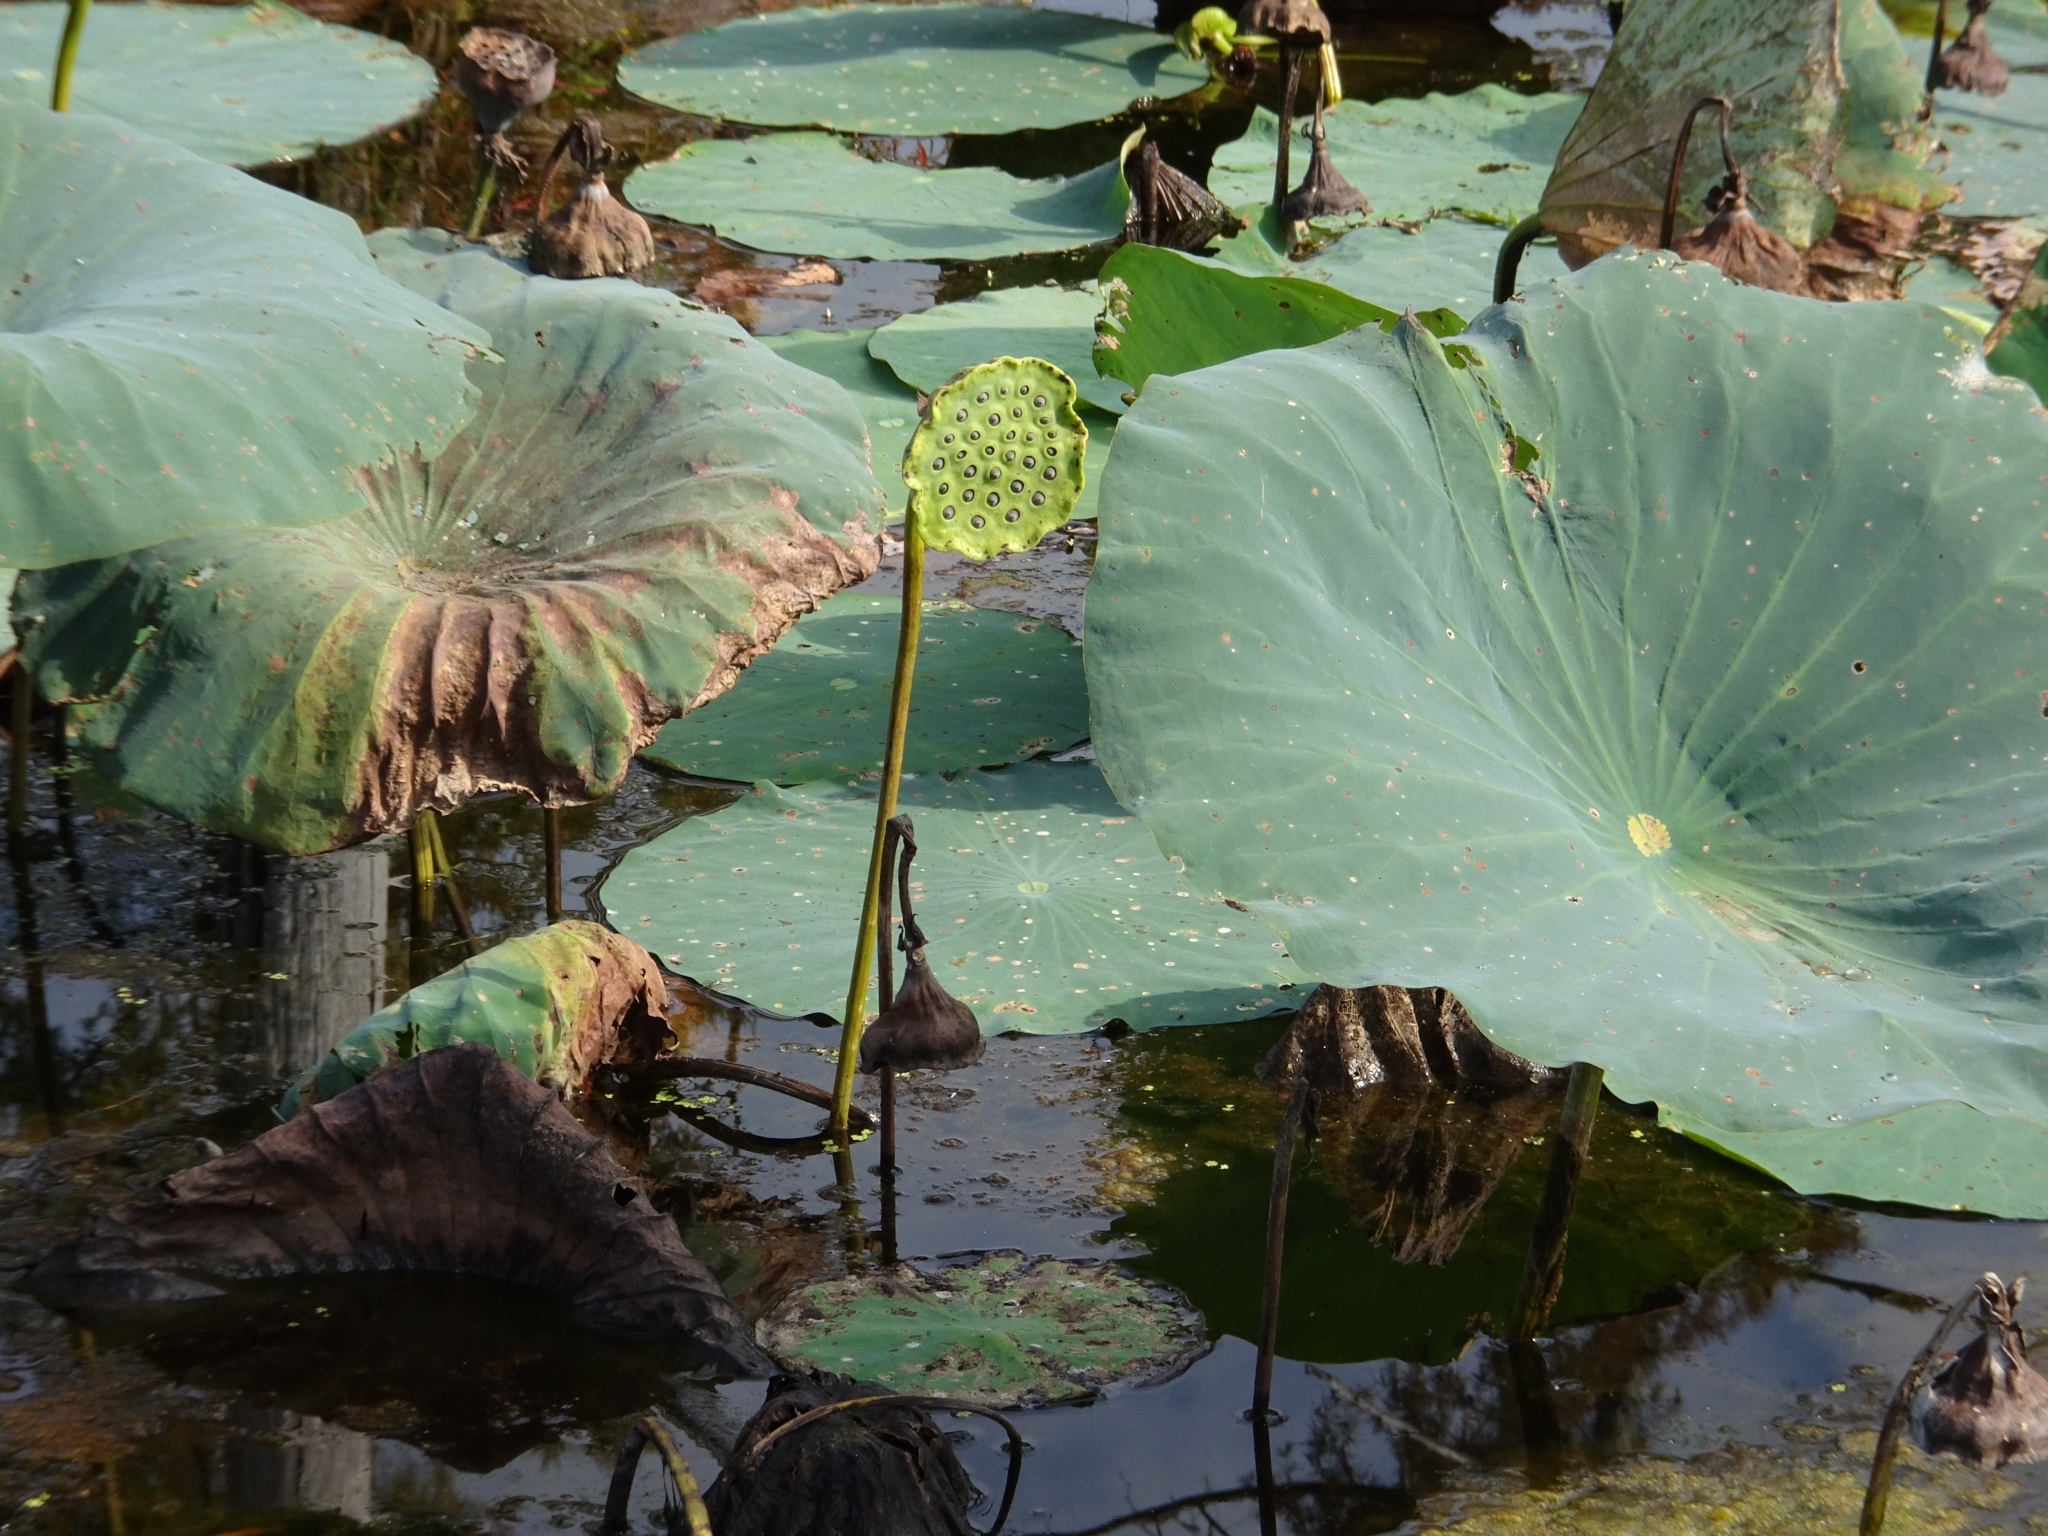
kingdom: Plantae
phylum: Tracheophyta
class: Magnoliopsida
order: Proteales
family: Nelumbonaceae
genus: Nelumbo
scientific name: Nelumbo lutea
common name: American lotus
